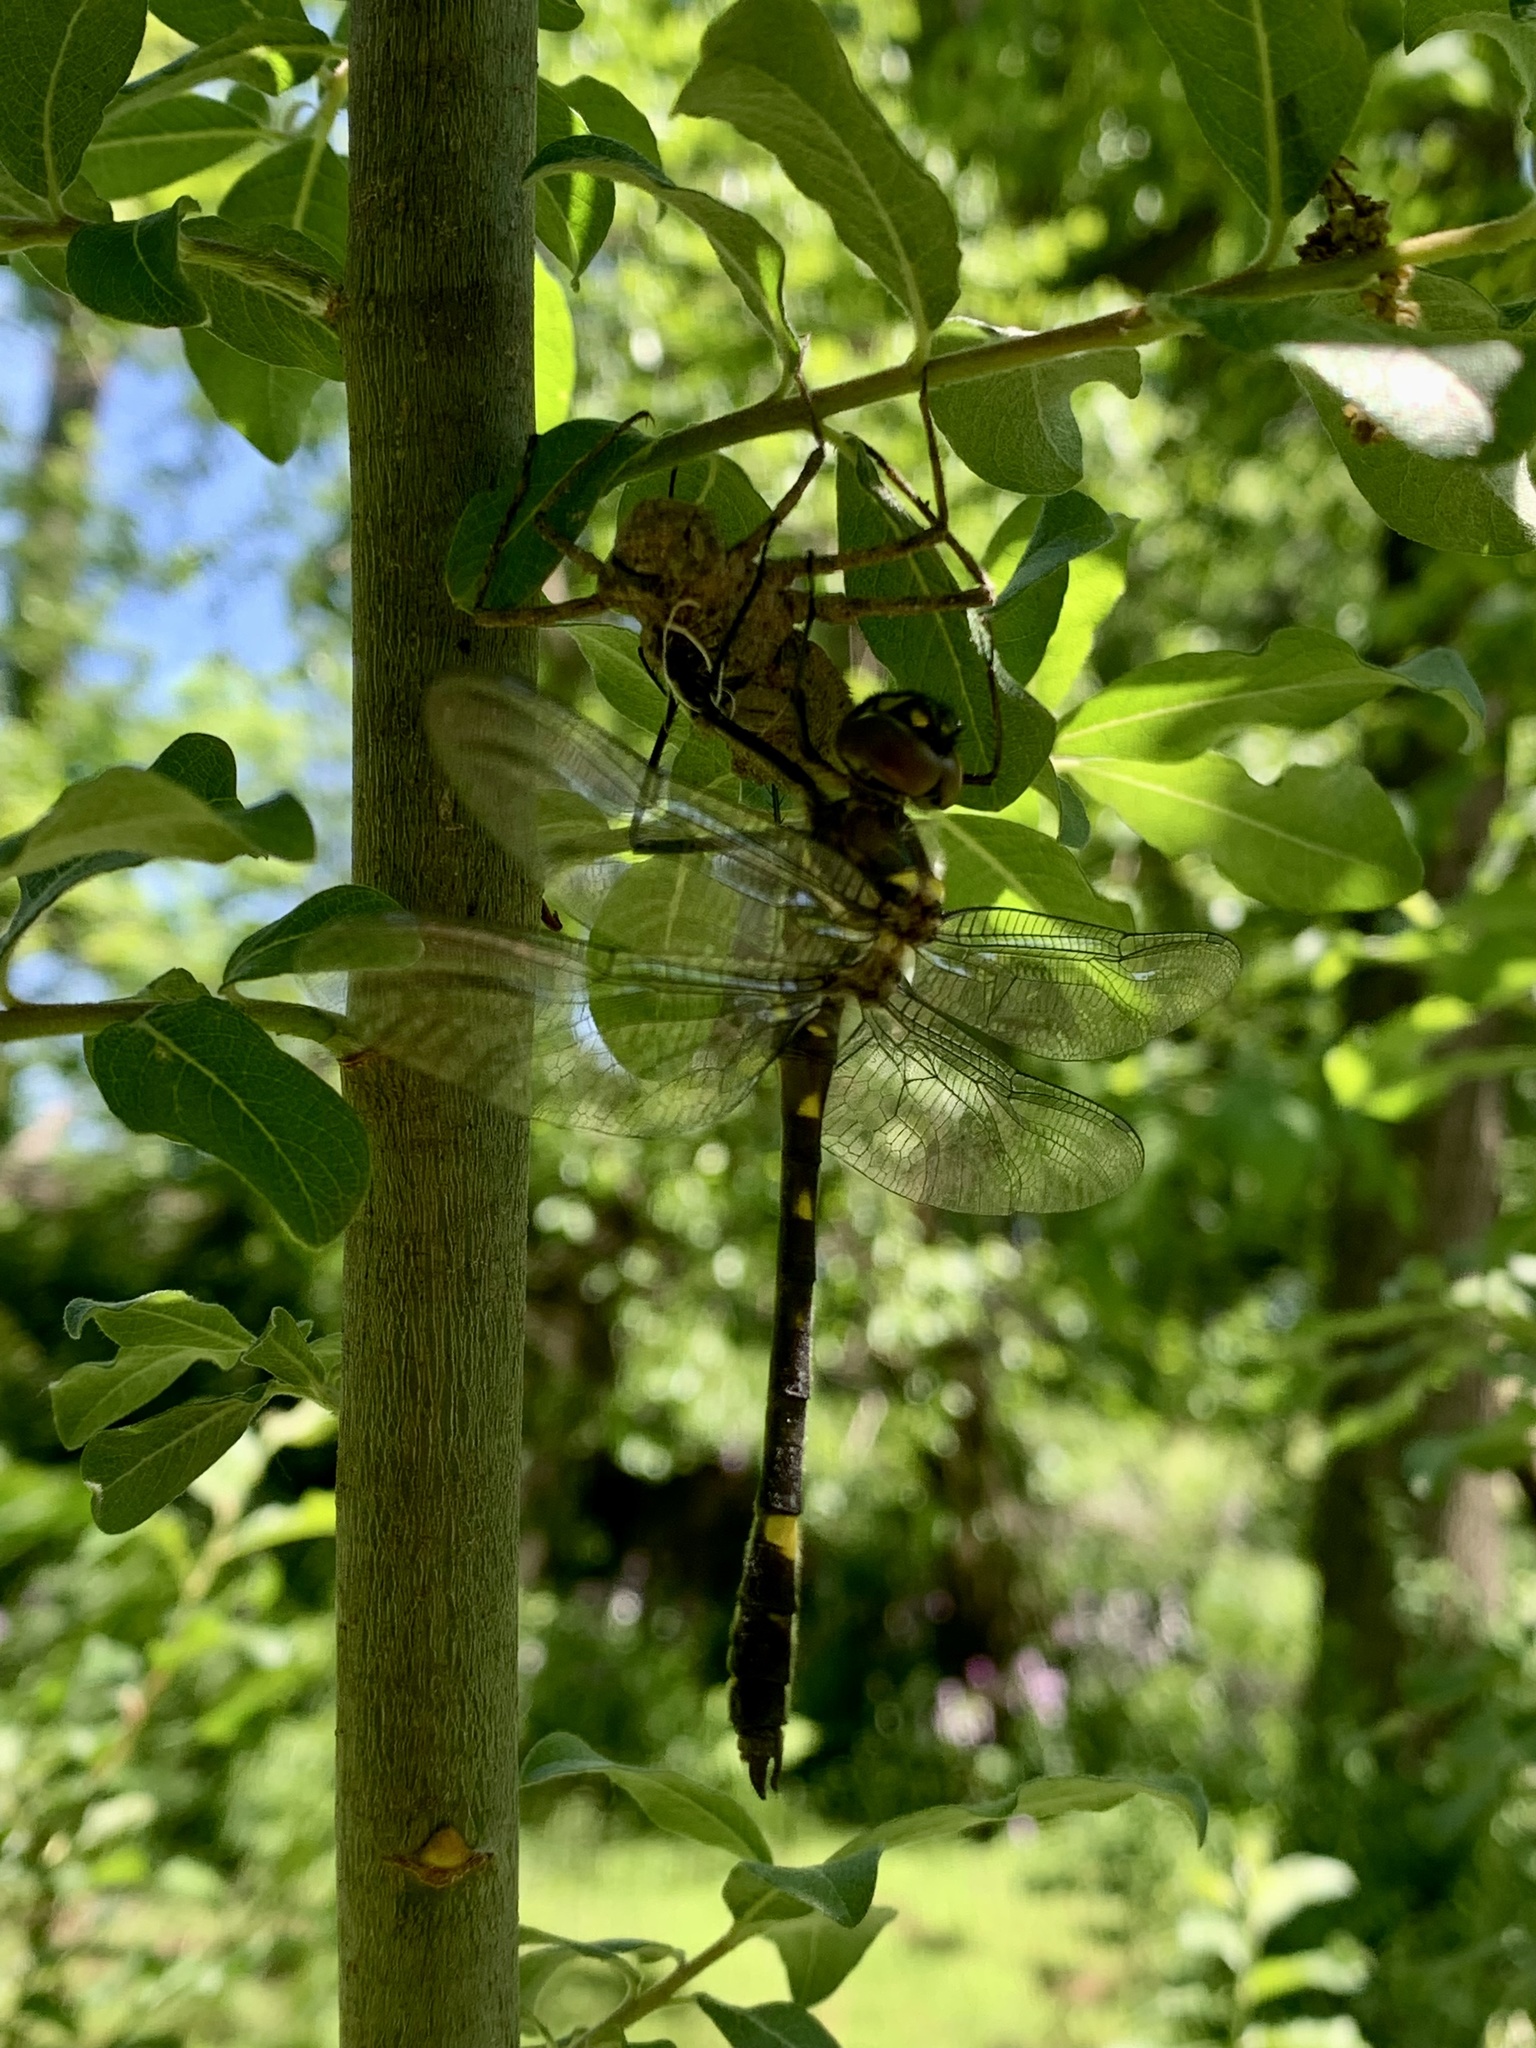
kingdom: Animalia
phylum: Arthropoda
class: Insecta
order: Odonata
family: Macromiidae
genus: Macromia
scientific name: Macromia illinoiensis
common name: Swift river cruiser
